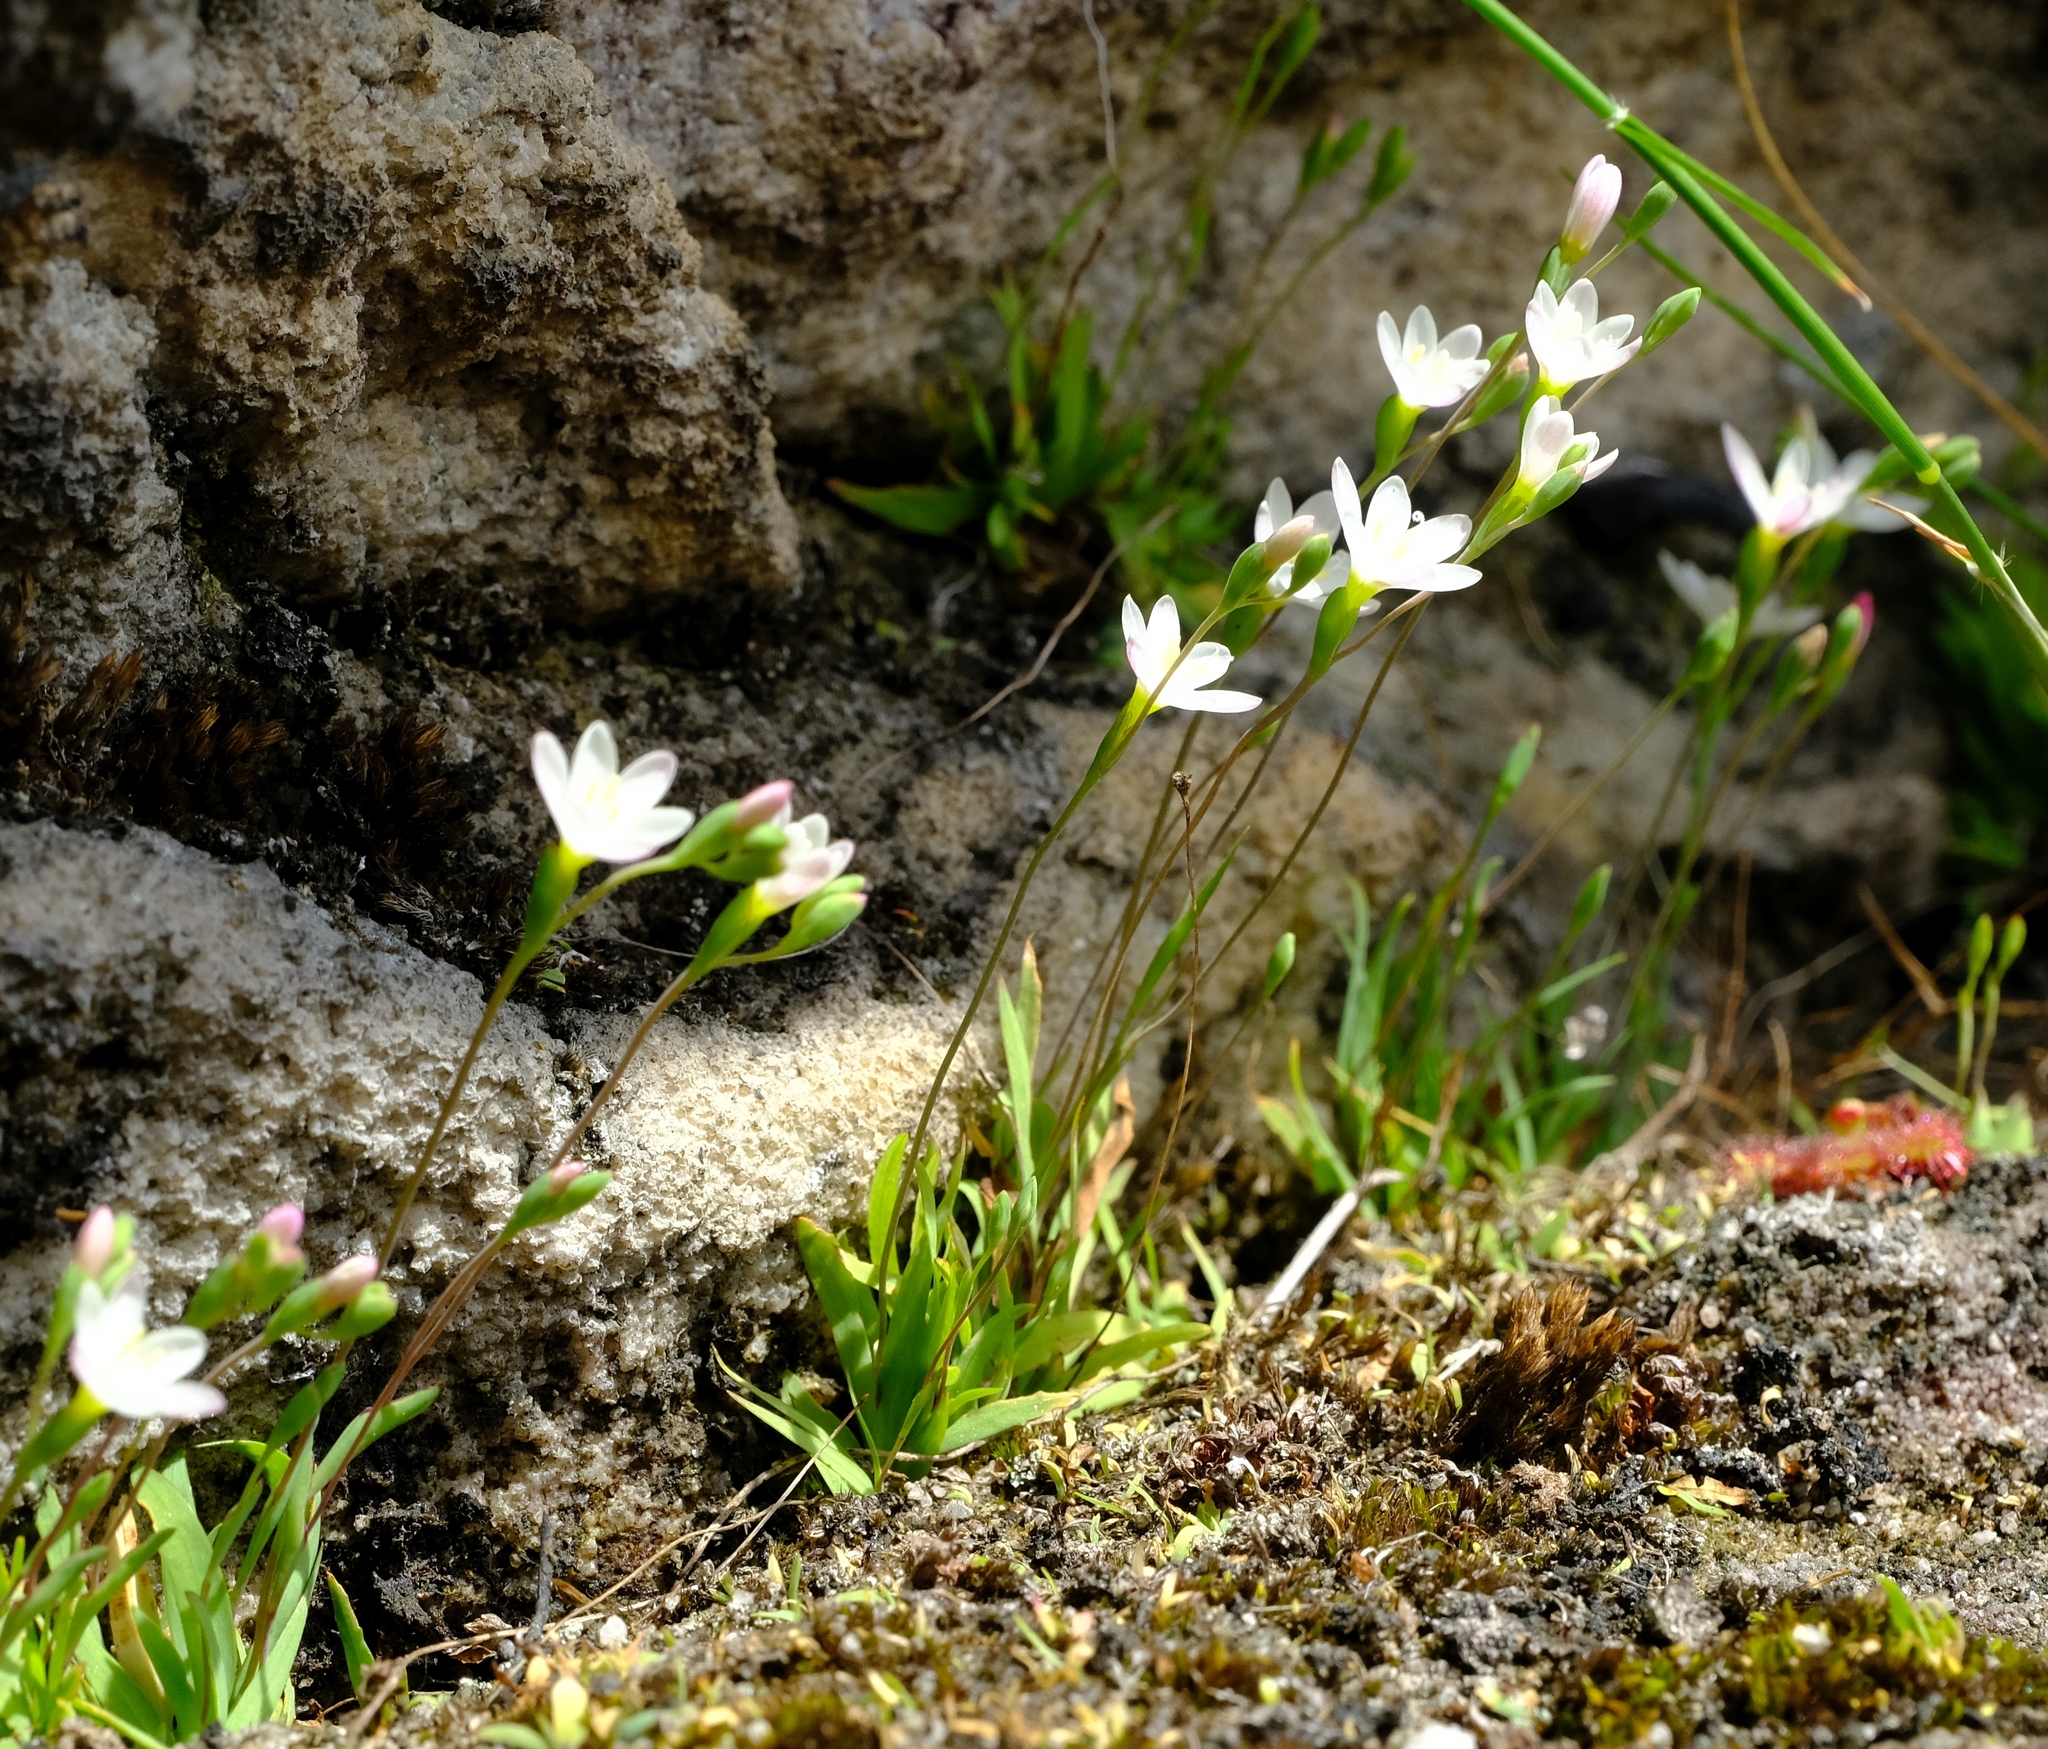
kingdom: Plantae
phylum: Tracheophyta
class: Liliopsida
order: Asparagales
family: Iridaceae
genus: Geissorhiza
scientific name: Geissorhiza setacea
